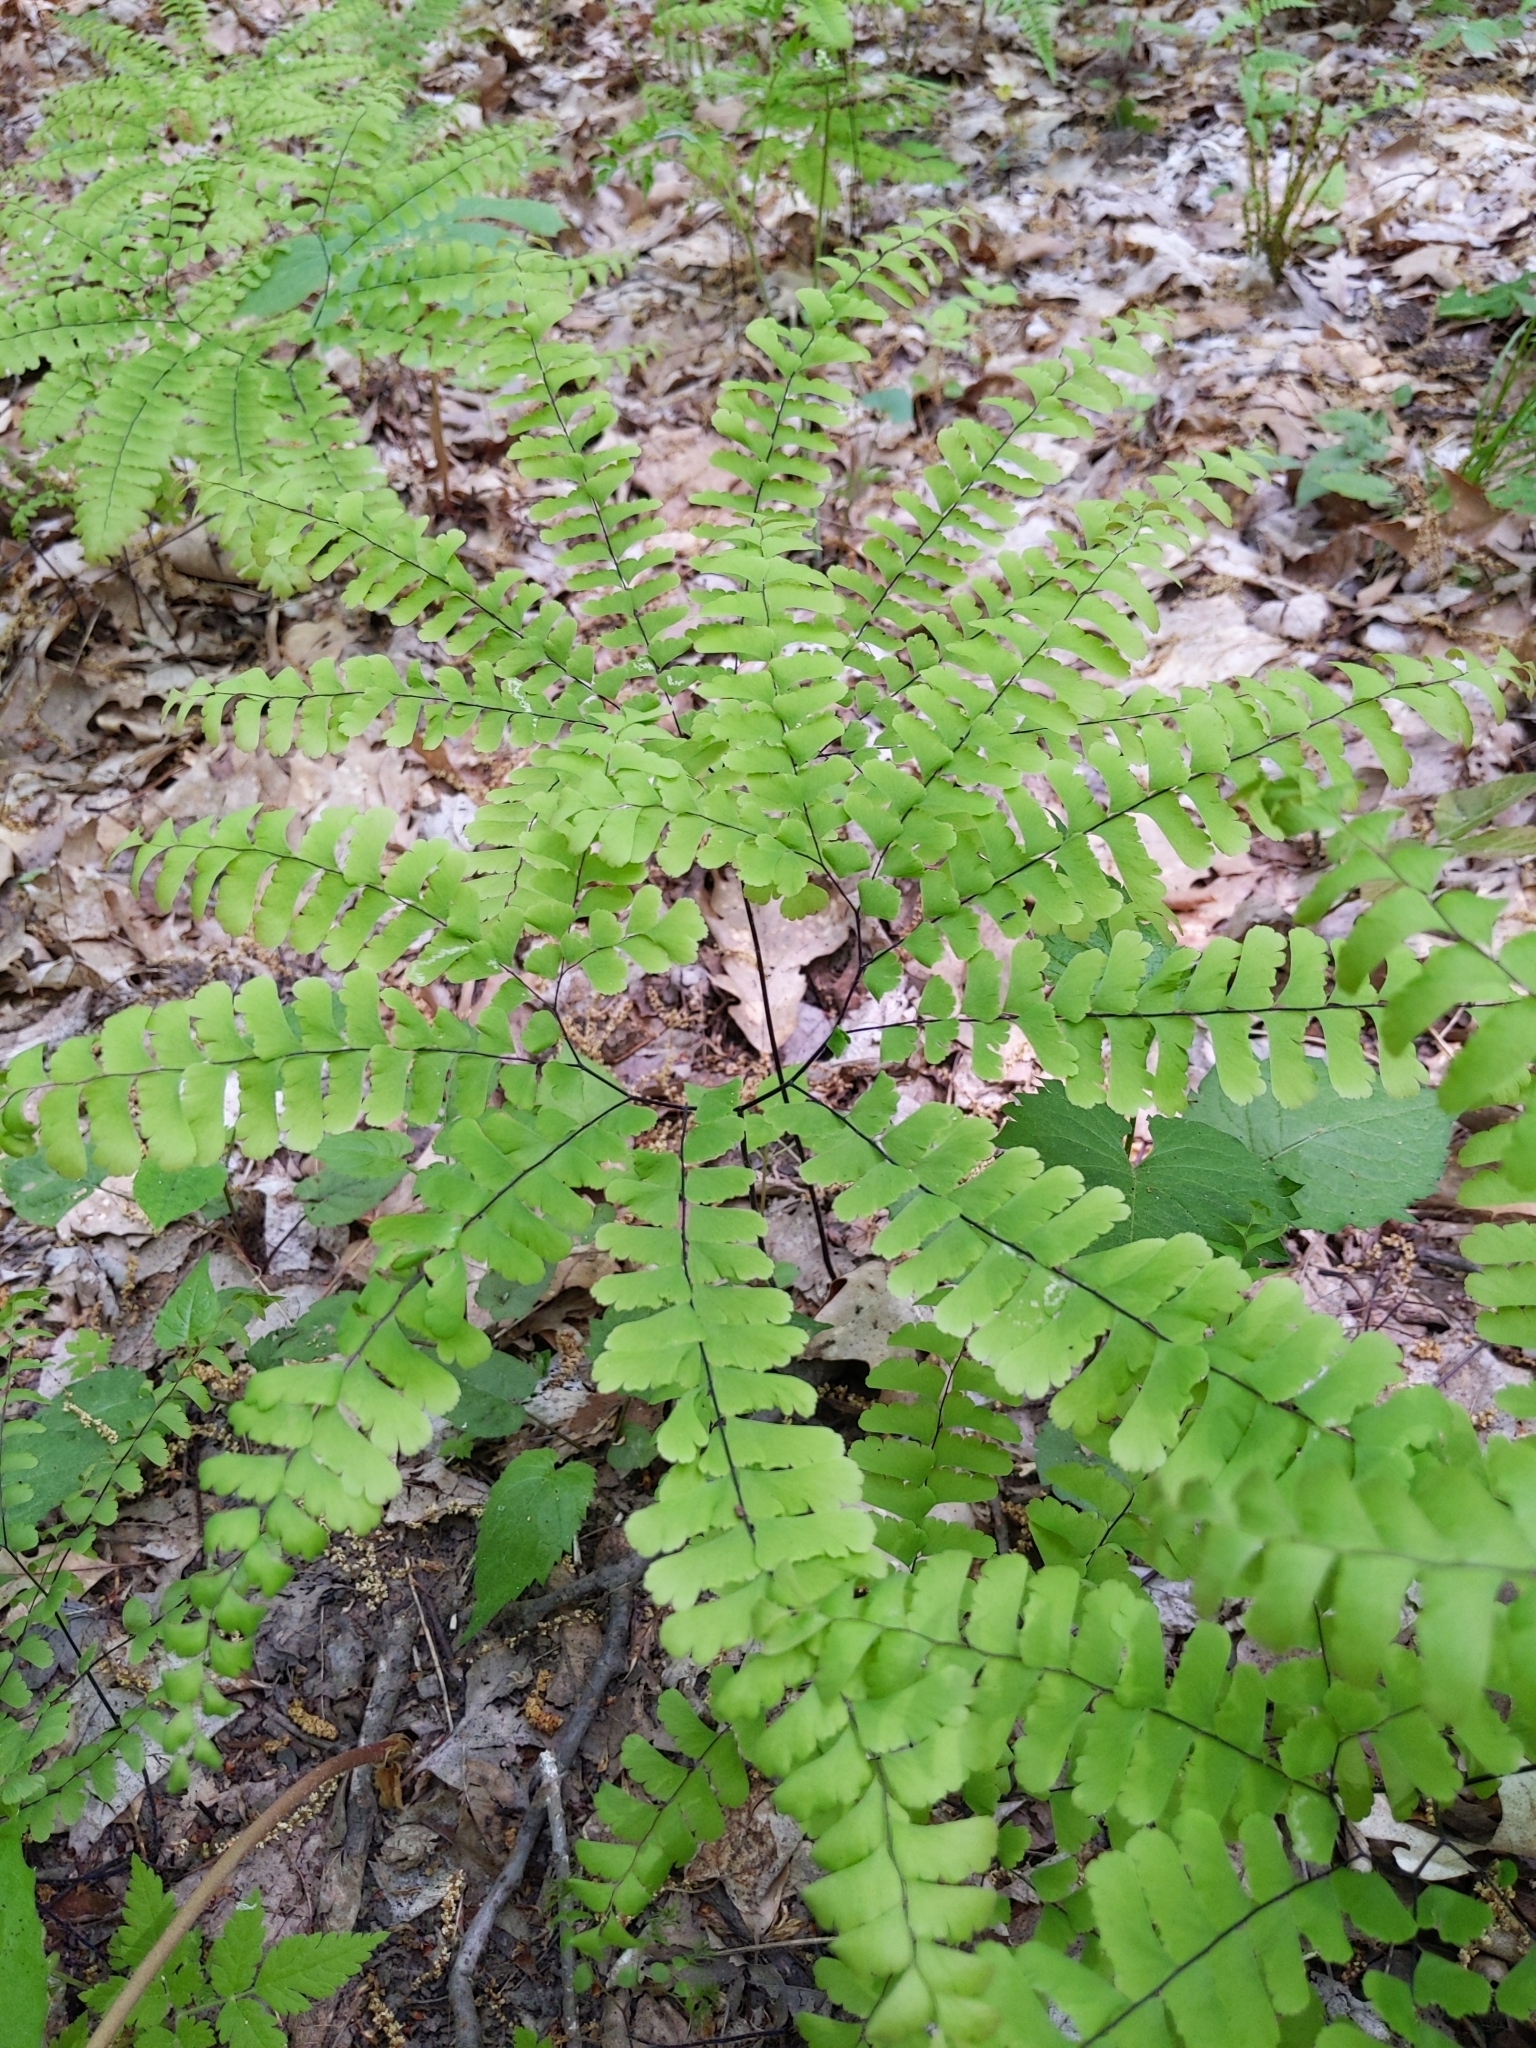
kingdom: Plantae
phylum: Tracheophyta
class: Polypodiopsida
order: Polypodiales
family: Pteridaceae
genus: Adiantum
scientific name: Adiantum pedatum
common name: Five-finger fern
